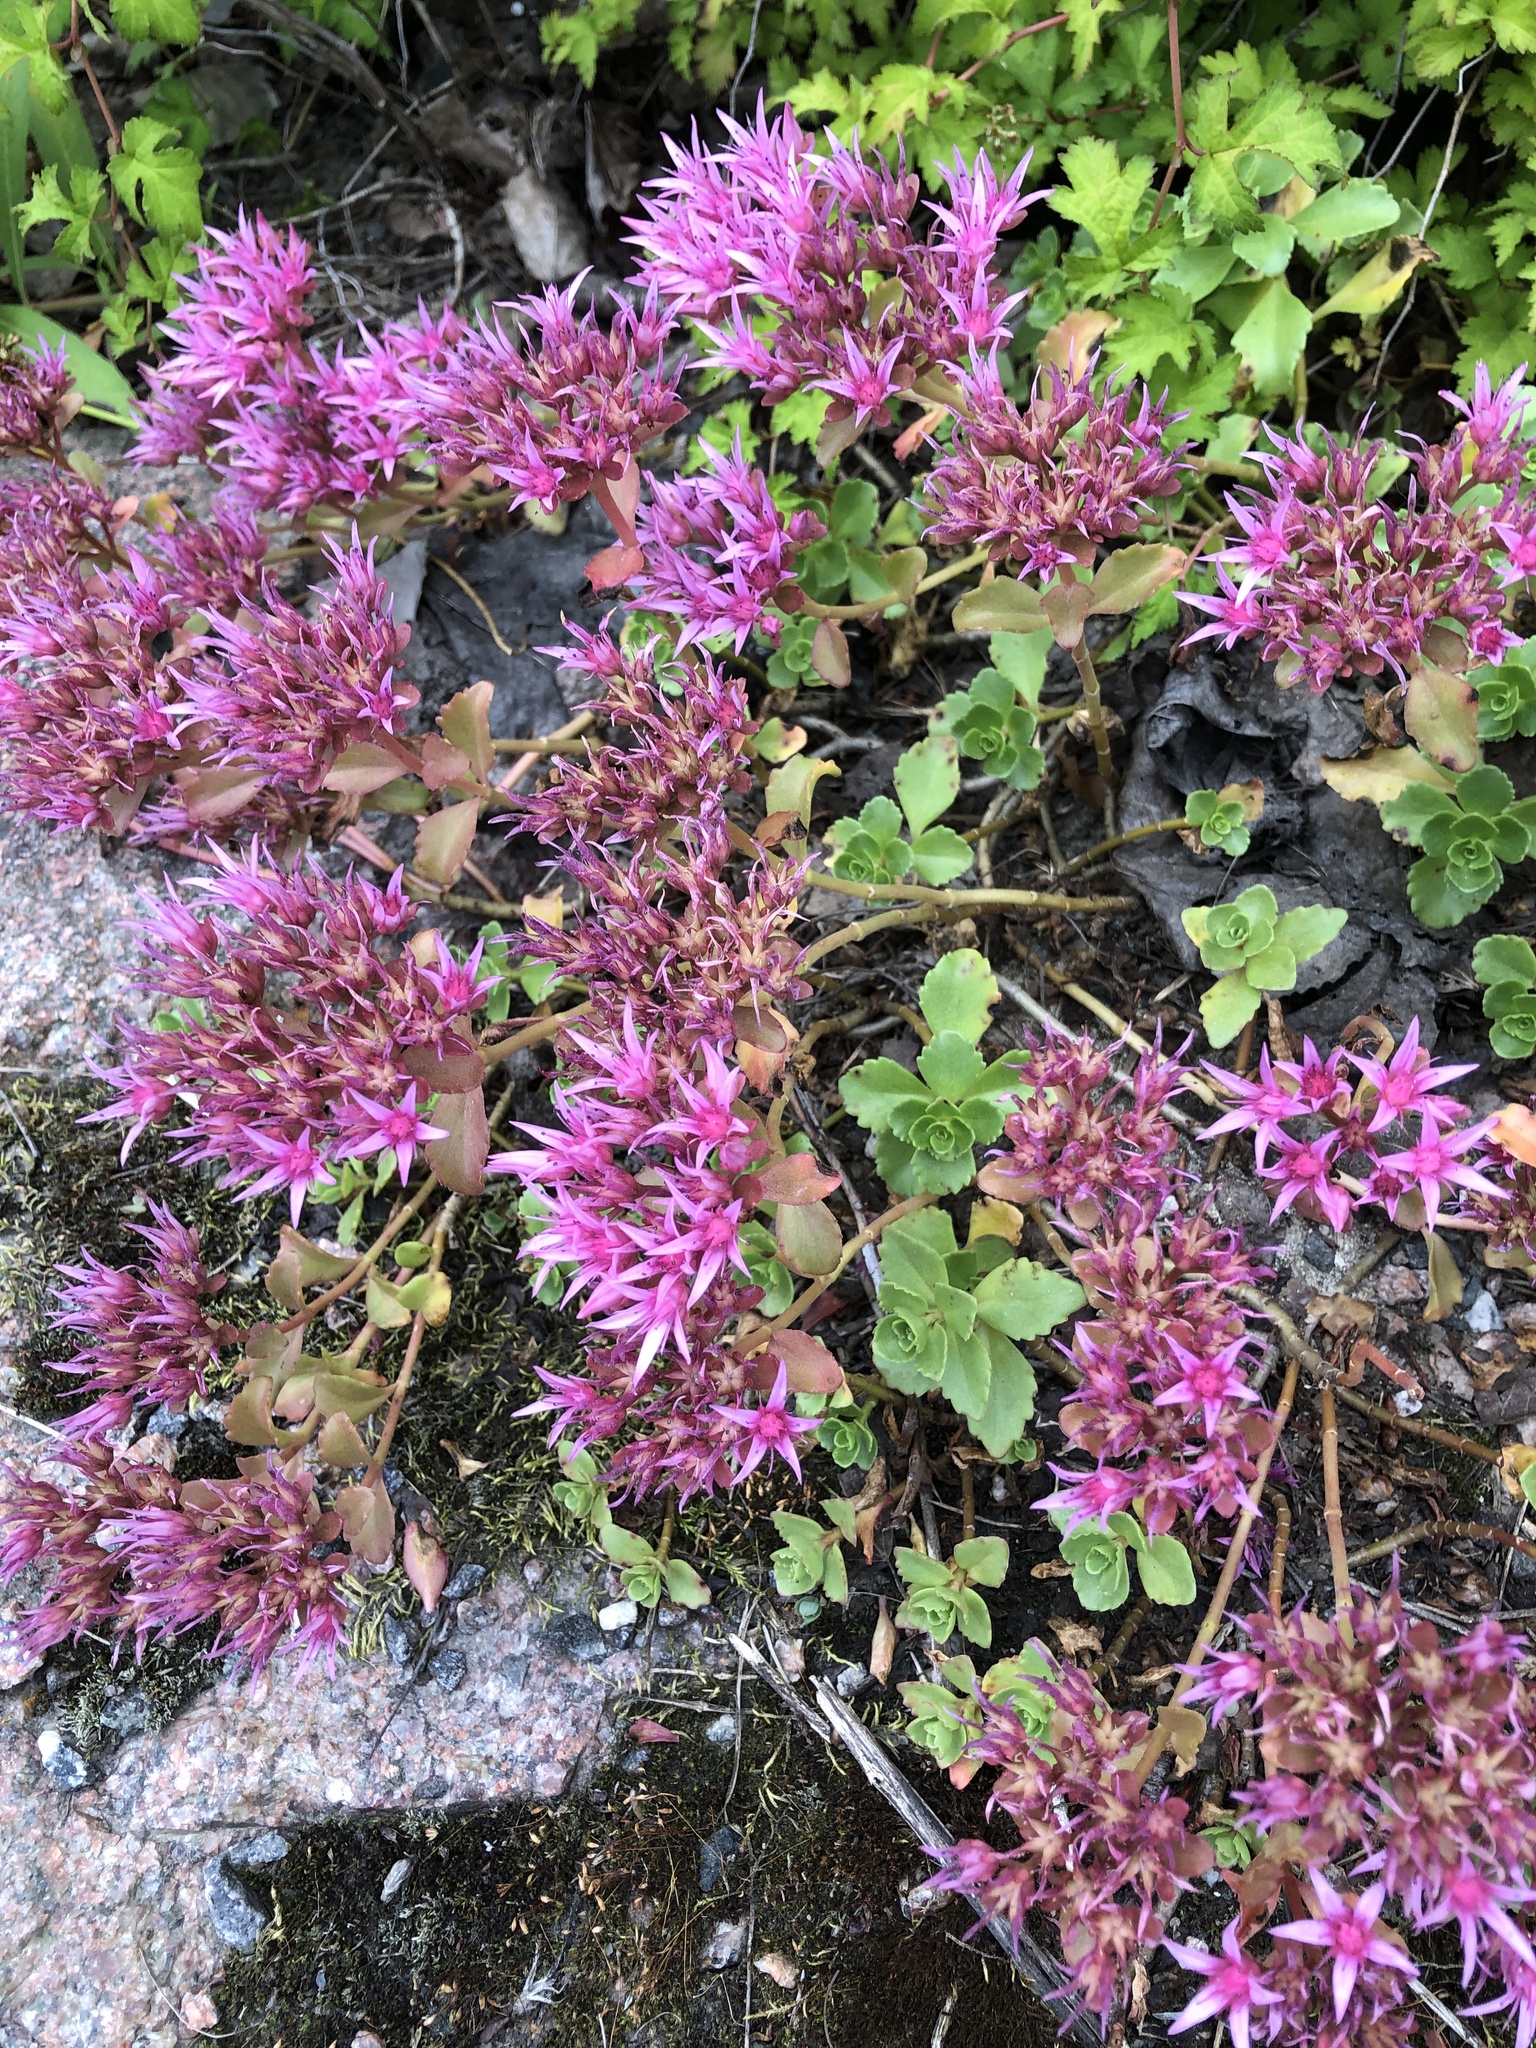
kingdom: Plantae
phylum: Tracheophyta
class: Magnoliopsida
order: Saxifragales
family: Crassulaceae
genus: Phedimus
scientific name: Phedimus spurius
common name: Caucasian stonecrop
